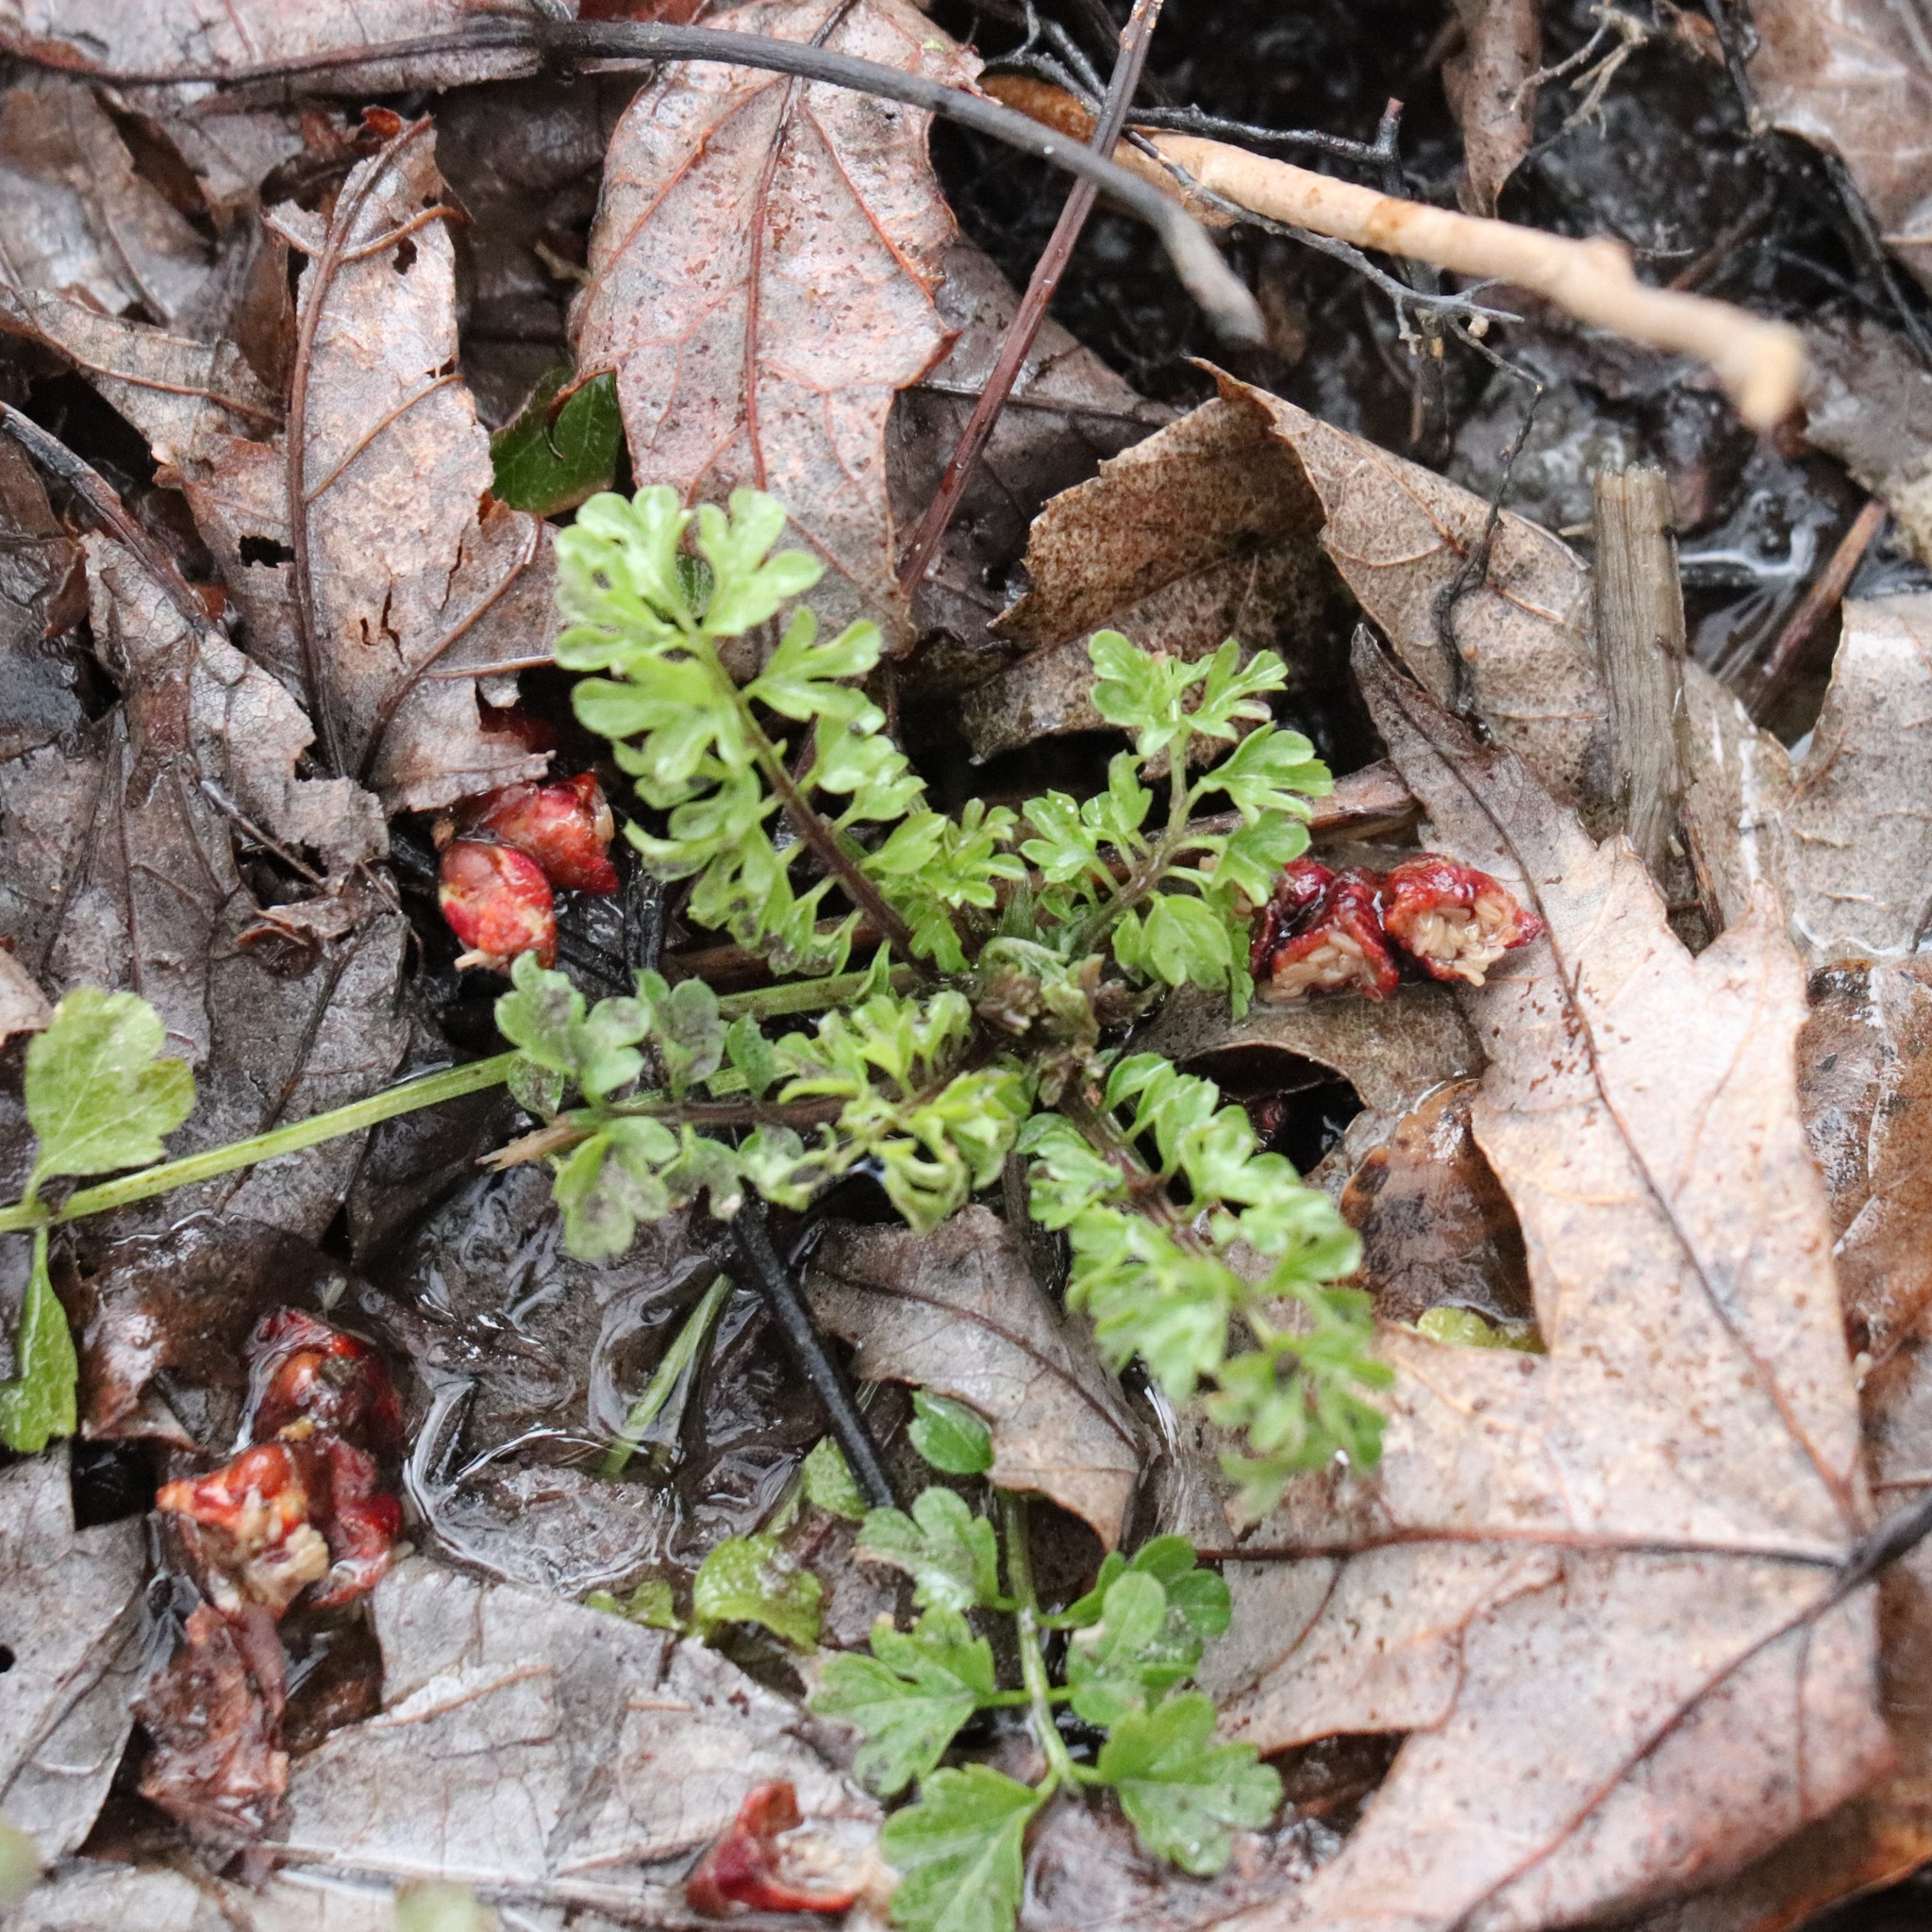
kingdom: Plantae
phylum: Tracheophyta
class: Magnoliopsida
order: Brassicales
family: Brassicaceae
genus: Cardamine
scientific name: Cardamine impatiens
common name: Narrow-leaved bitter-cress
